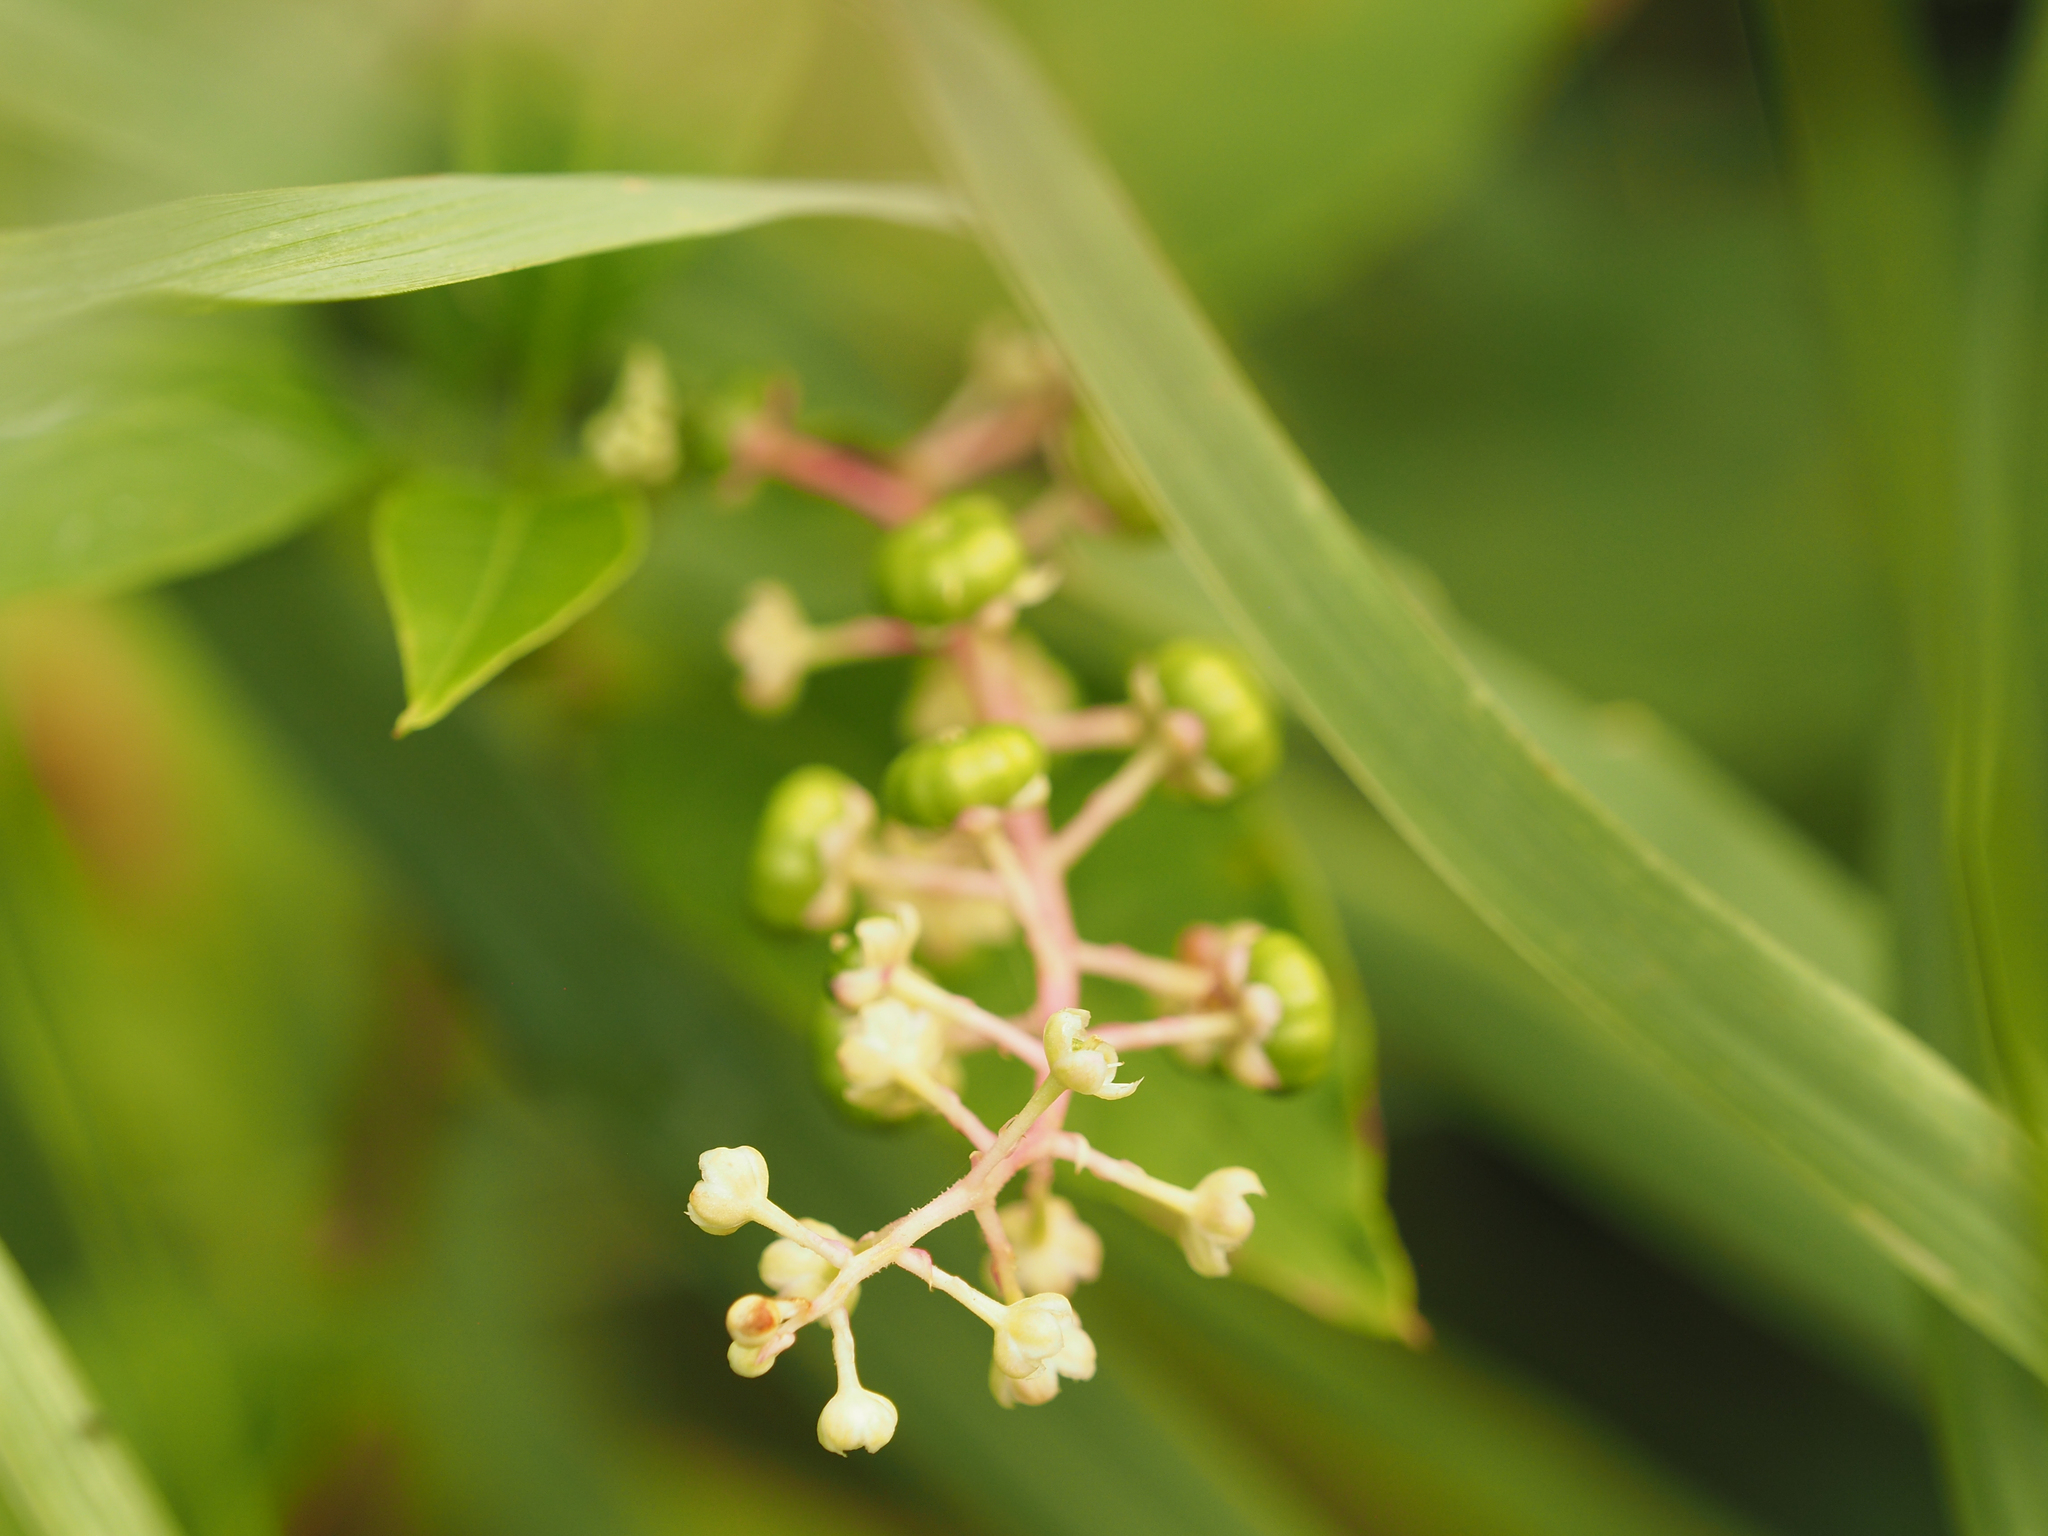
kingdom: Plantae
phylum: Tracheophyta
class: Magnoliopsida
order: Caryophyllales
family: Phytolaccaceae
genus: Phytolacca
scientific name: Phytolacca americana
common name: American pokeweed
